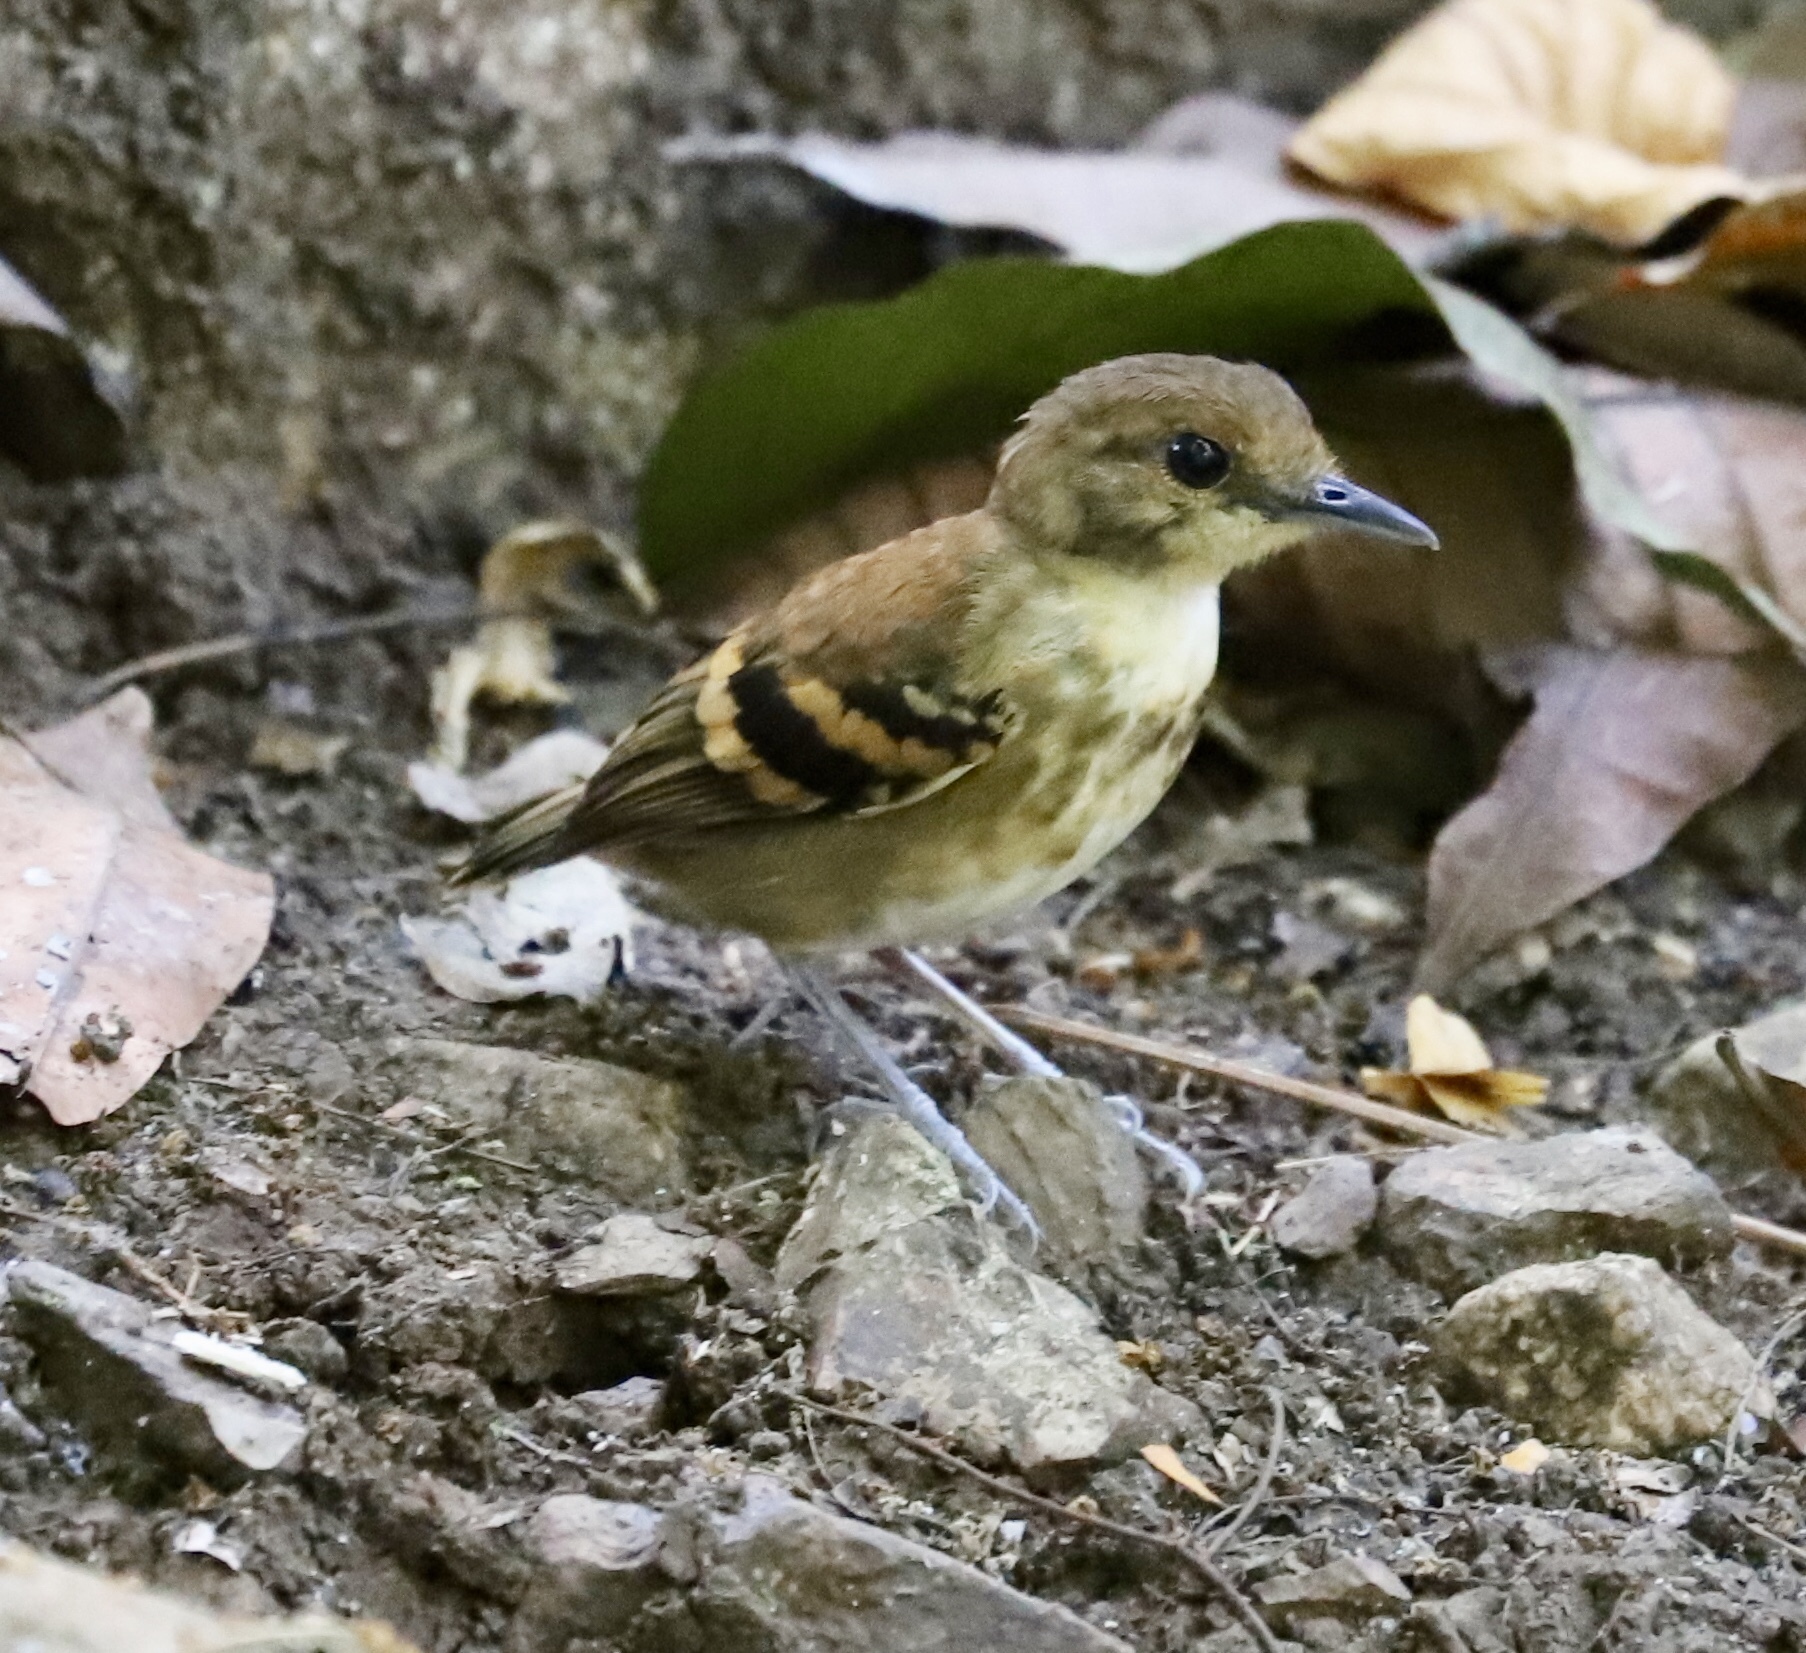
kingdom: Animalia
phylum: Chordata
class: Aves
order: Passeriformes
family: Thamnophilidae
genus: Hylophylax
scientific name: Hylophylax naevioides
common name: Spotted antbird
